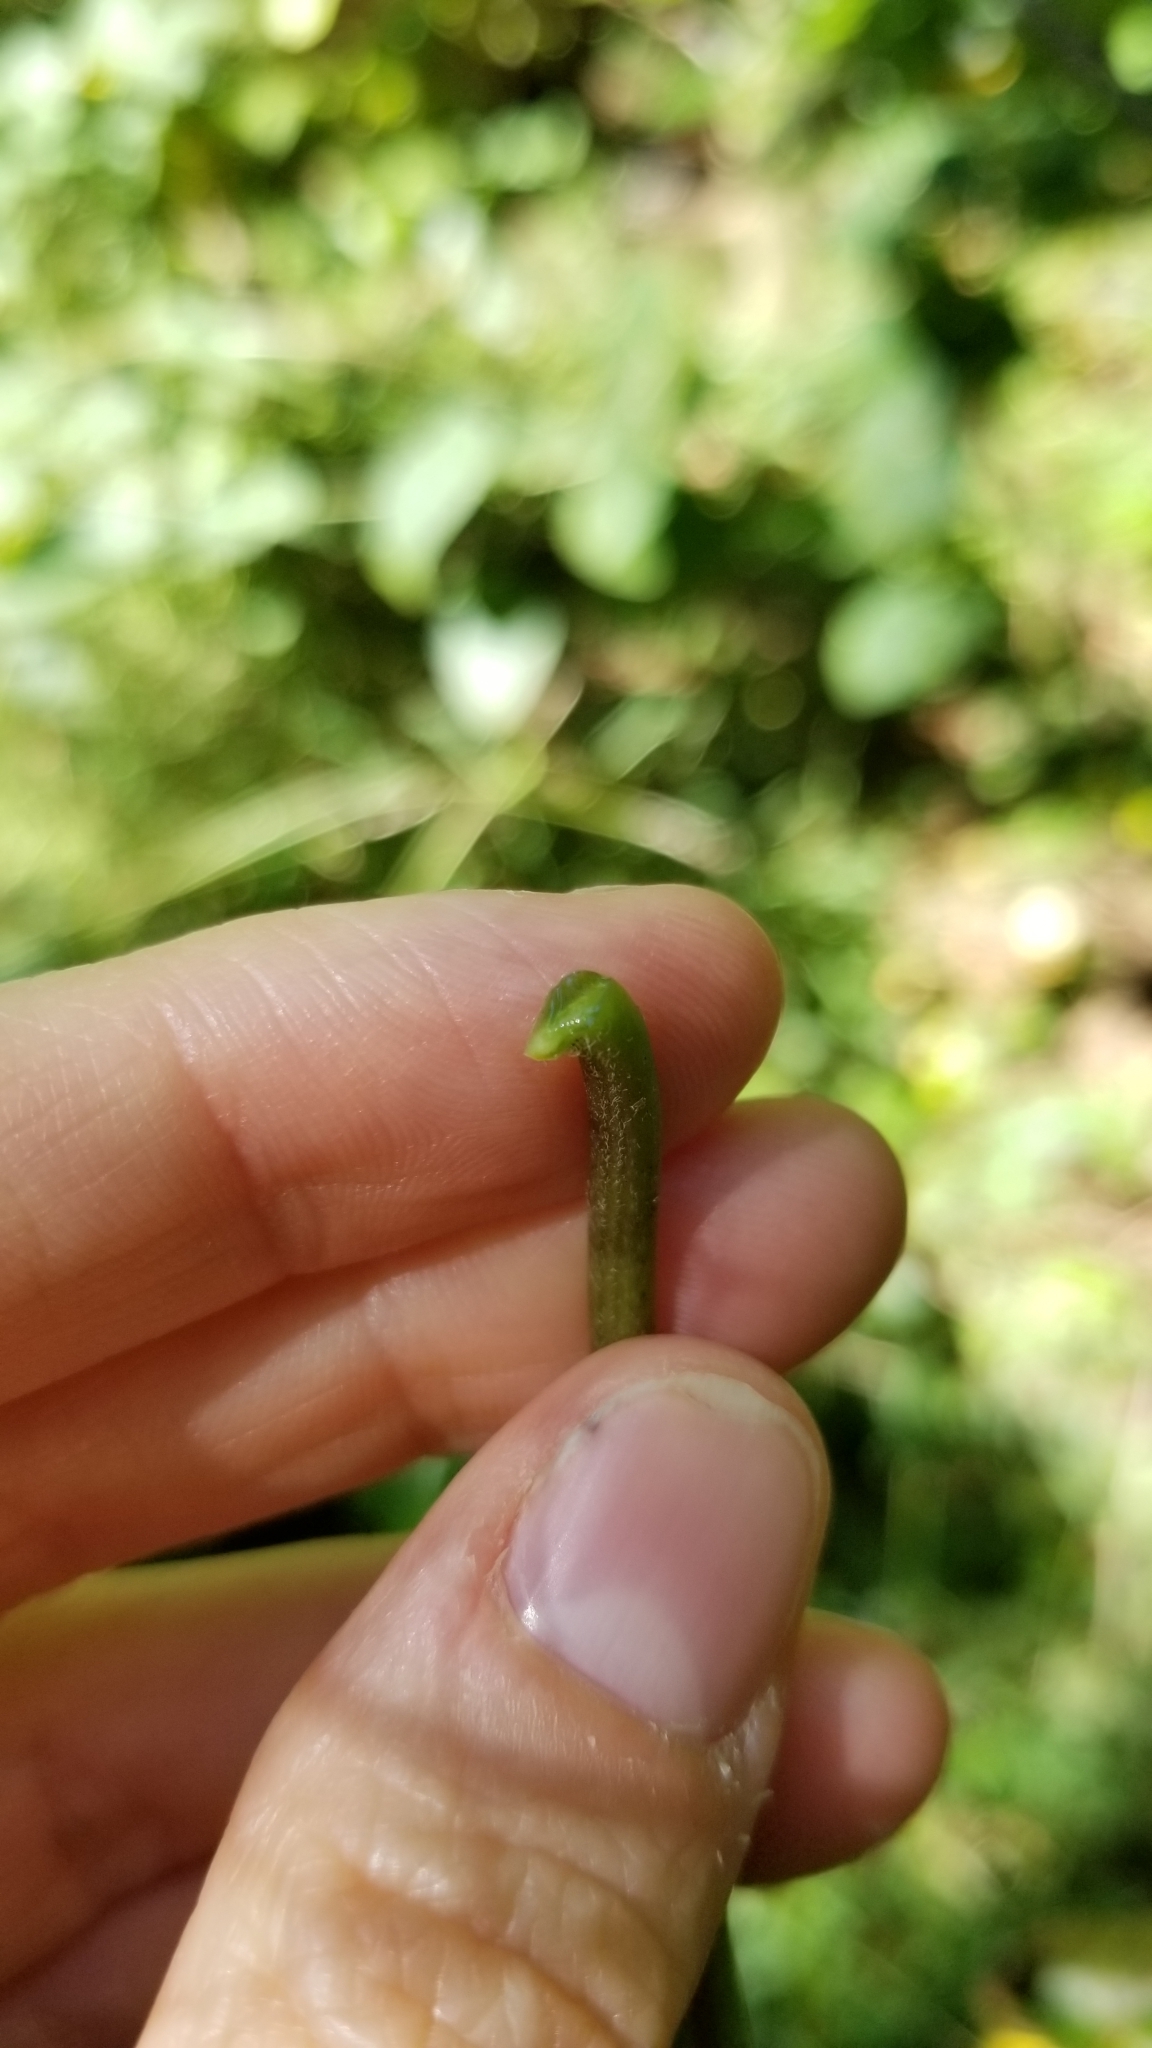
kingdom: Plantae
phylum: Tracheophyta
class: Magnoliopsida
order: Gentianales
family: Apocynaceae
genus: Cynanchum
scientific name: Cynanchum laeve
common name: Sandvine
